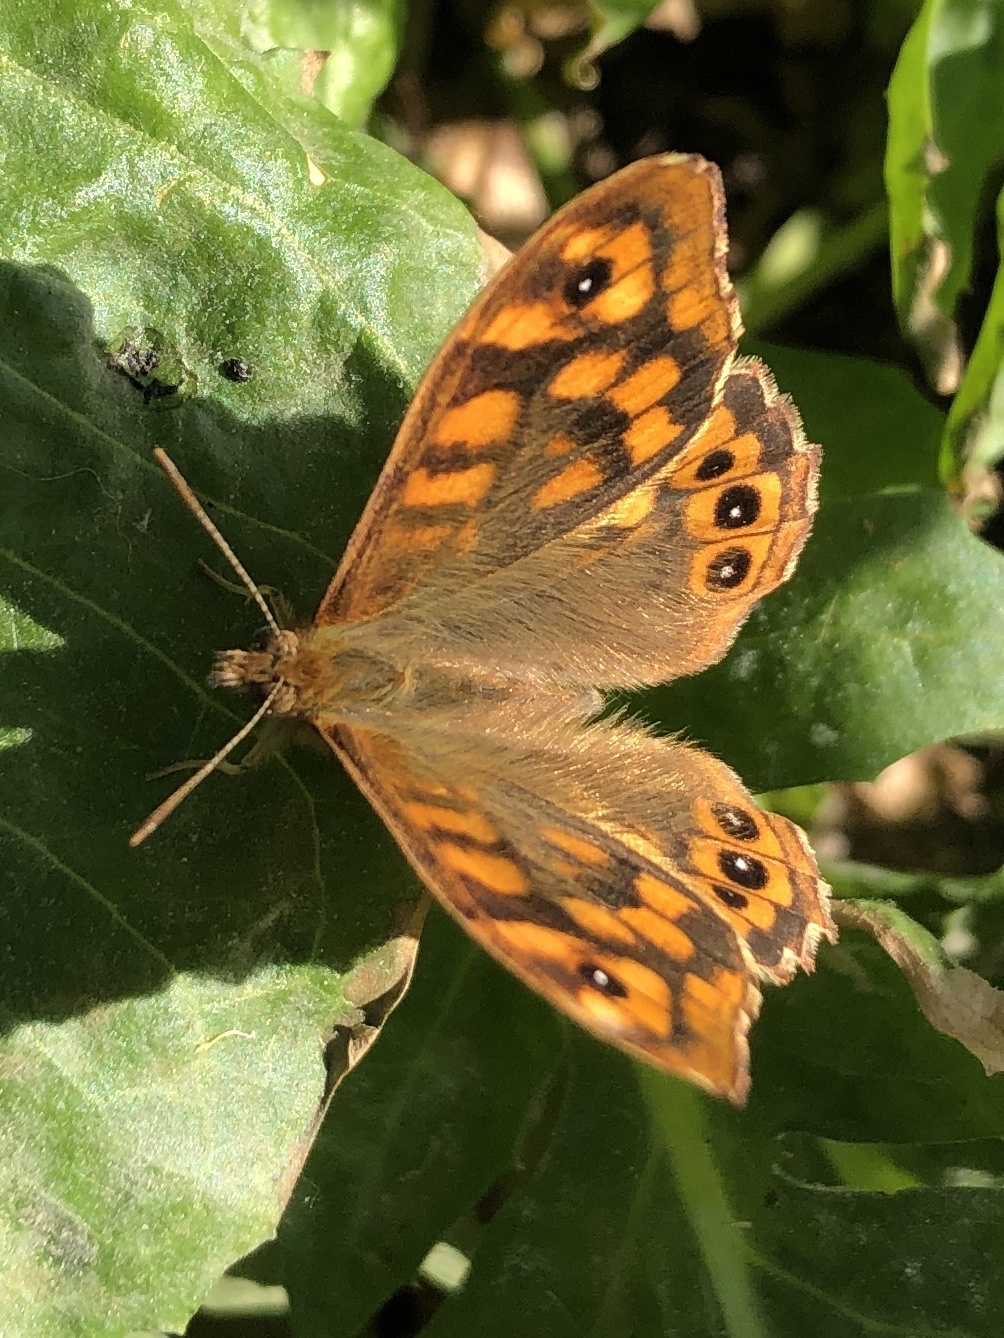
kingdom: Animalia
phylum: Arthropoda
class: Insecta
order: Lepidoptera
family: Nymphalidae
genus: Pararge
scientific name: Pararge aegeria
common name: Speckled wood
